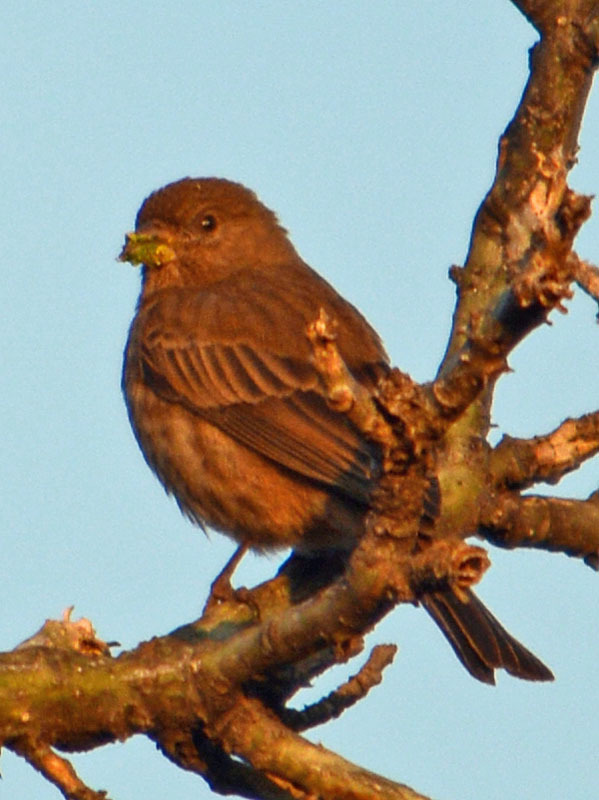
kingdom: Animalia
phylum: Chordata
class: Aves
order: Passeriformes
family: Fringillidae
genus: Haemorhous
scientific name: Haemorhous mexicanus
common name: House finch
